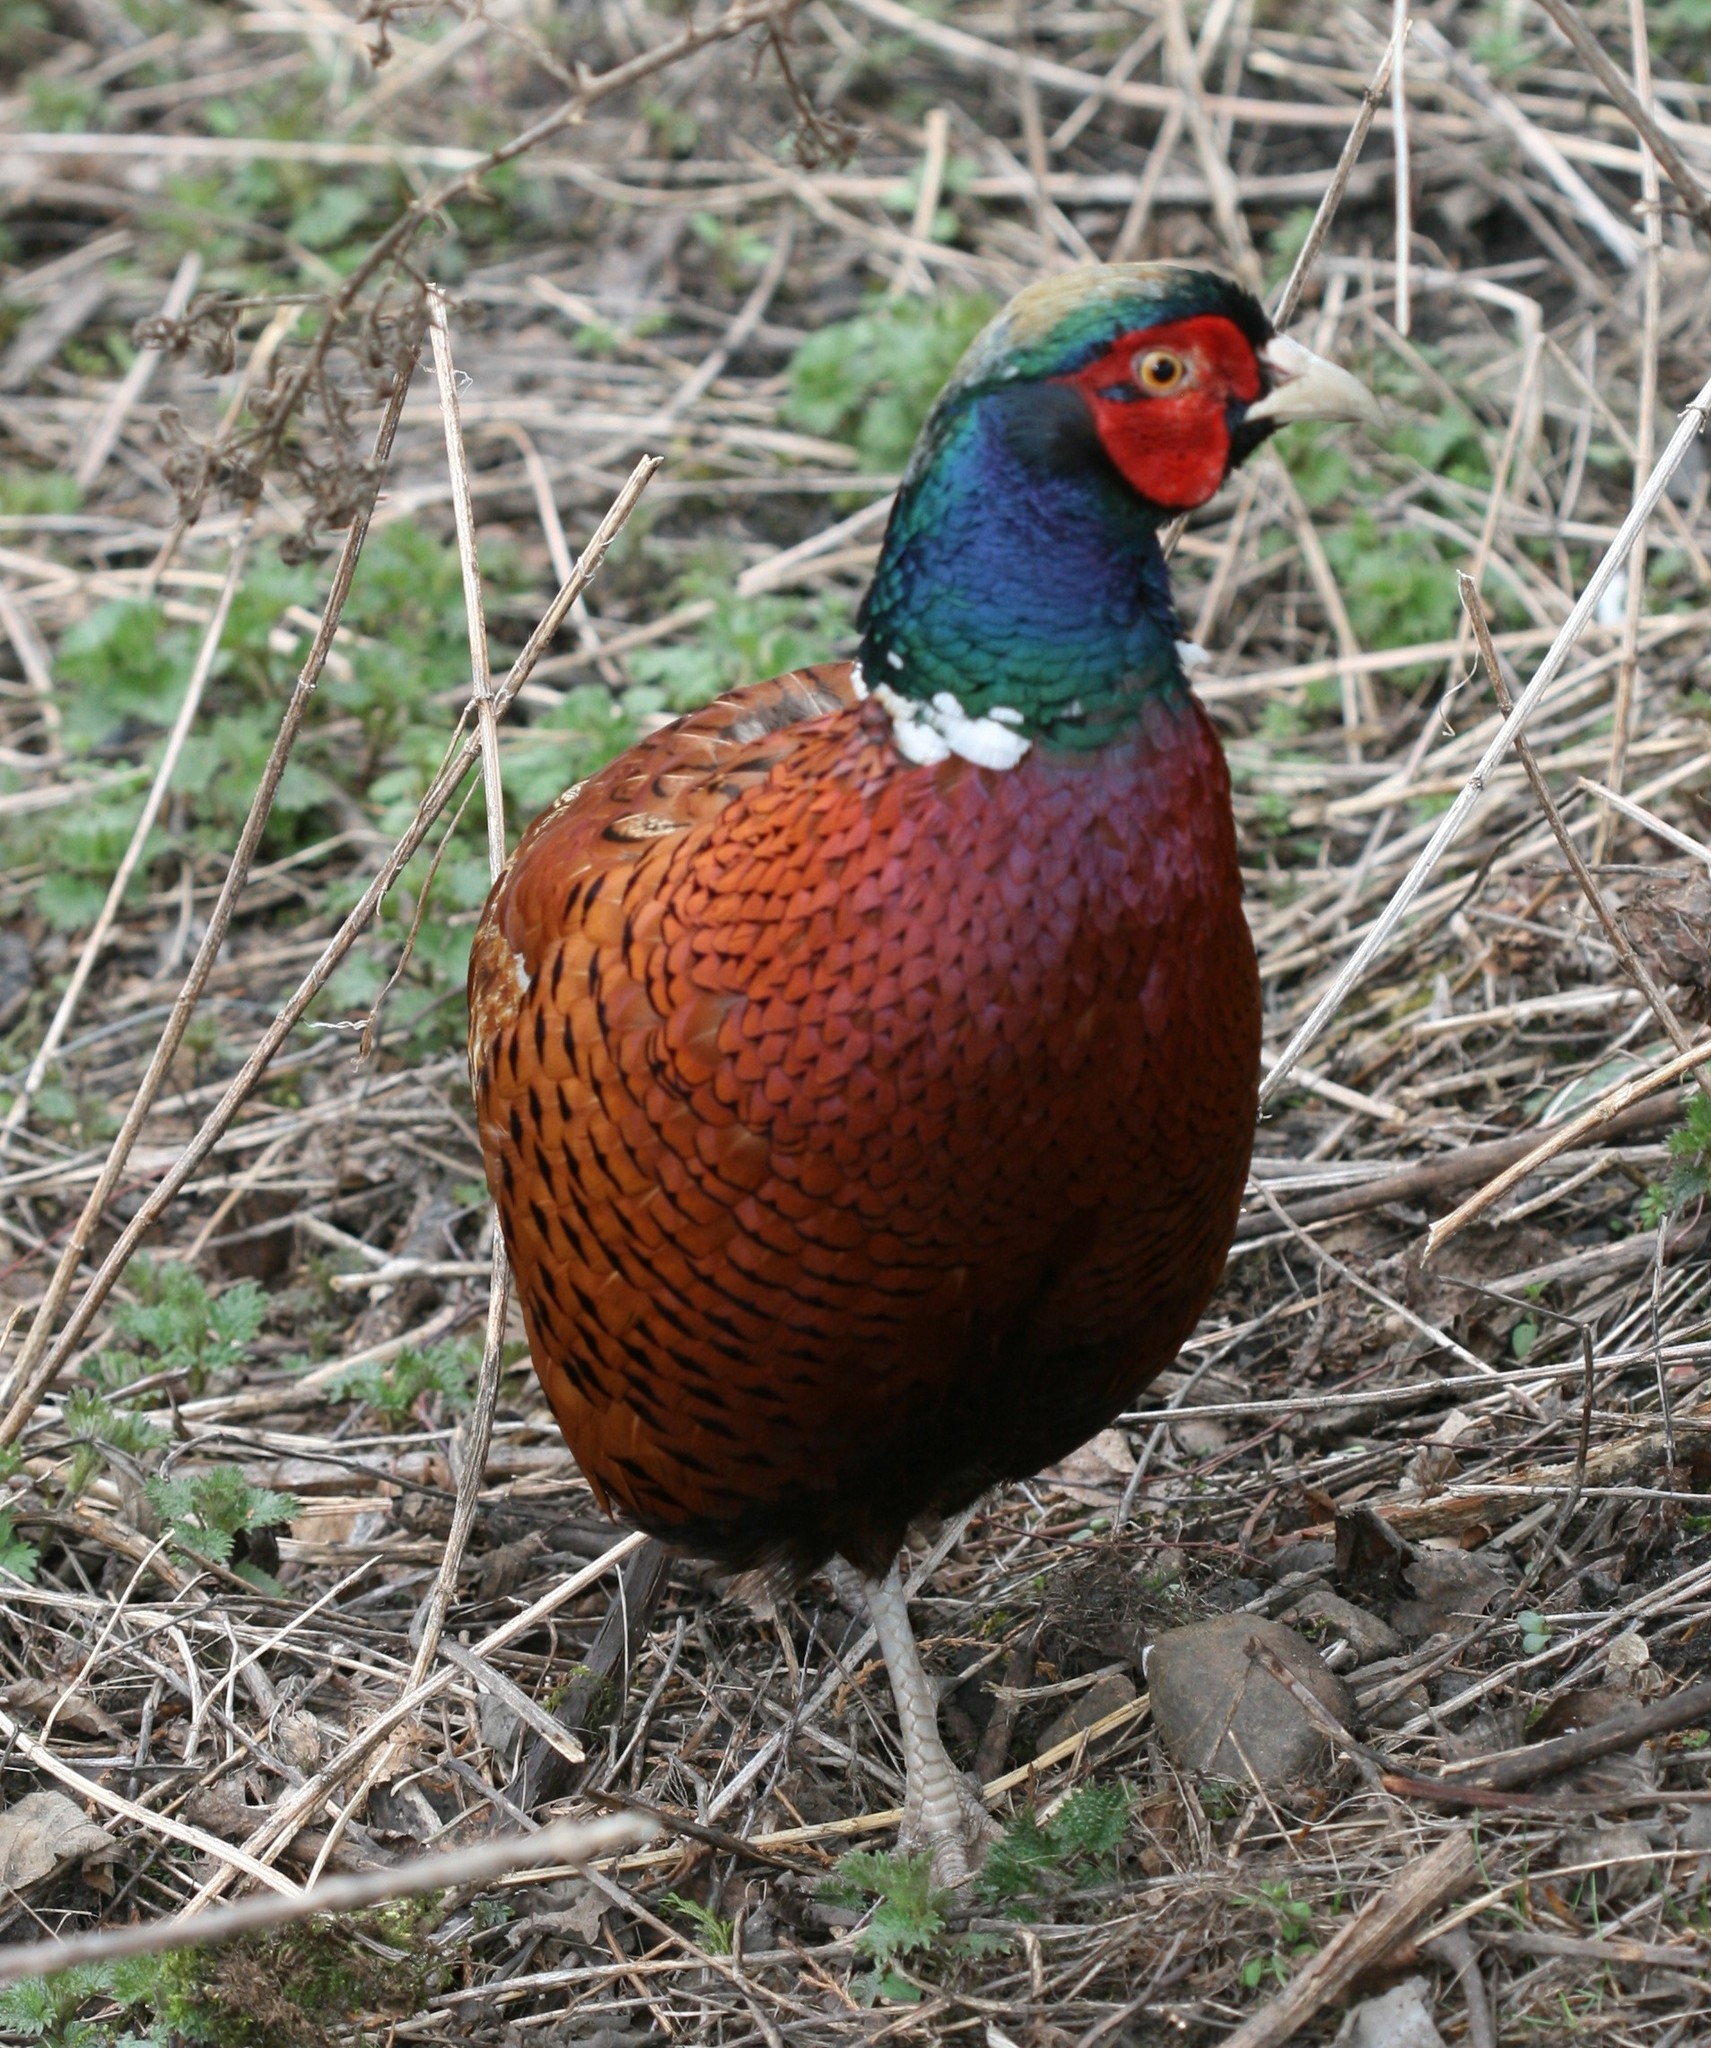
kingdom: Animalia
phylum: Chordata
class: Aves
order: Galliformes
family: Phasianidae
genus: Phasianus
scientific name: Phasianus colchicus
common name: Common pheasant
